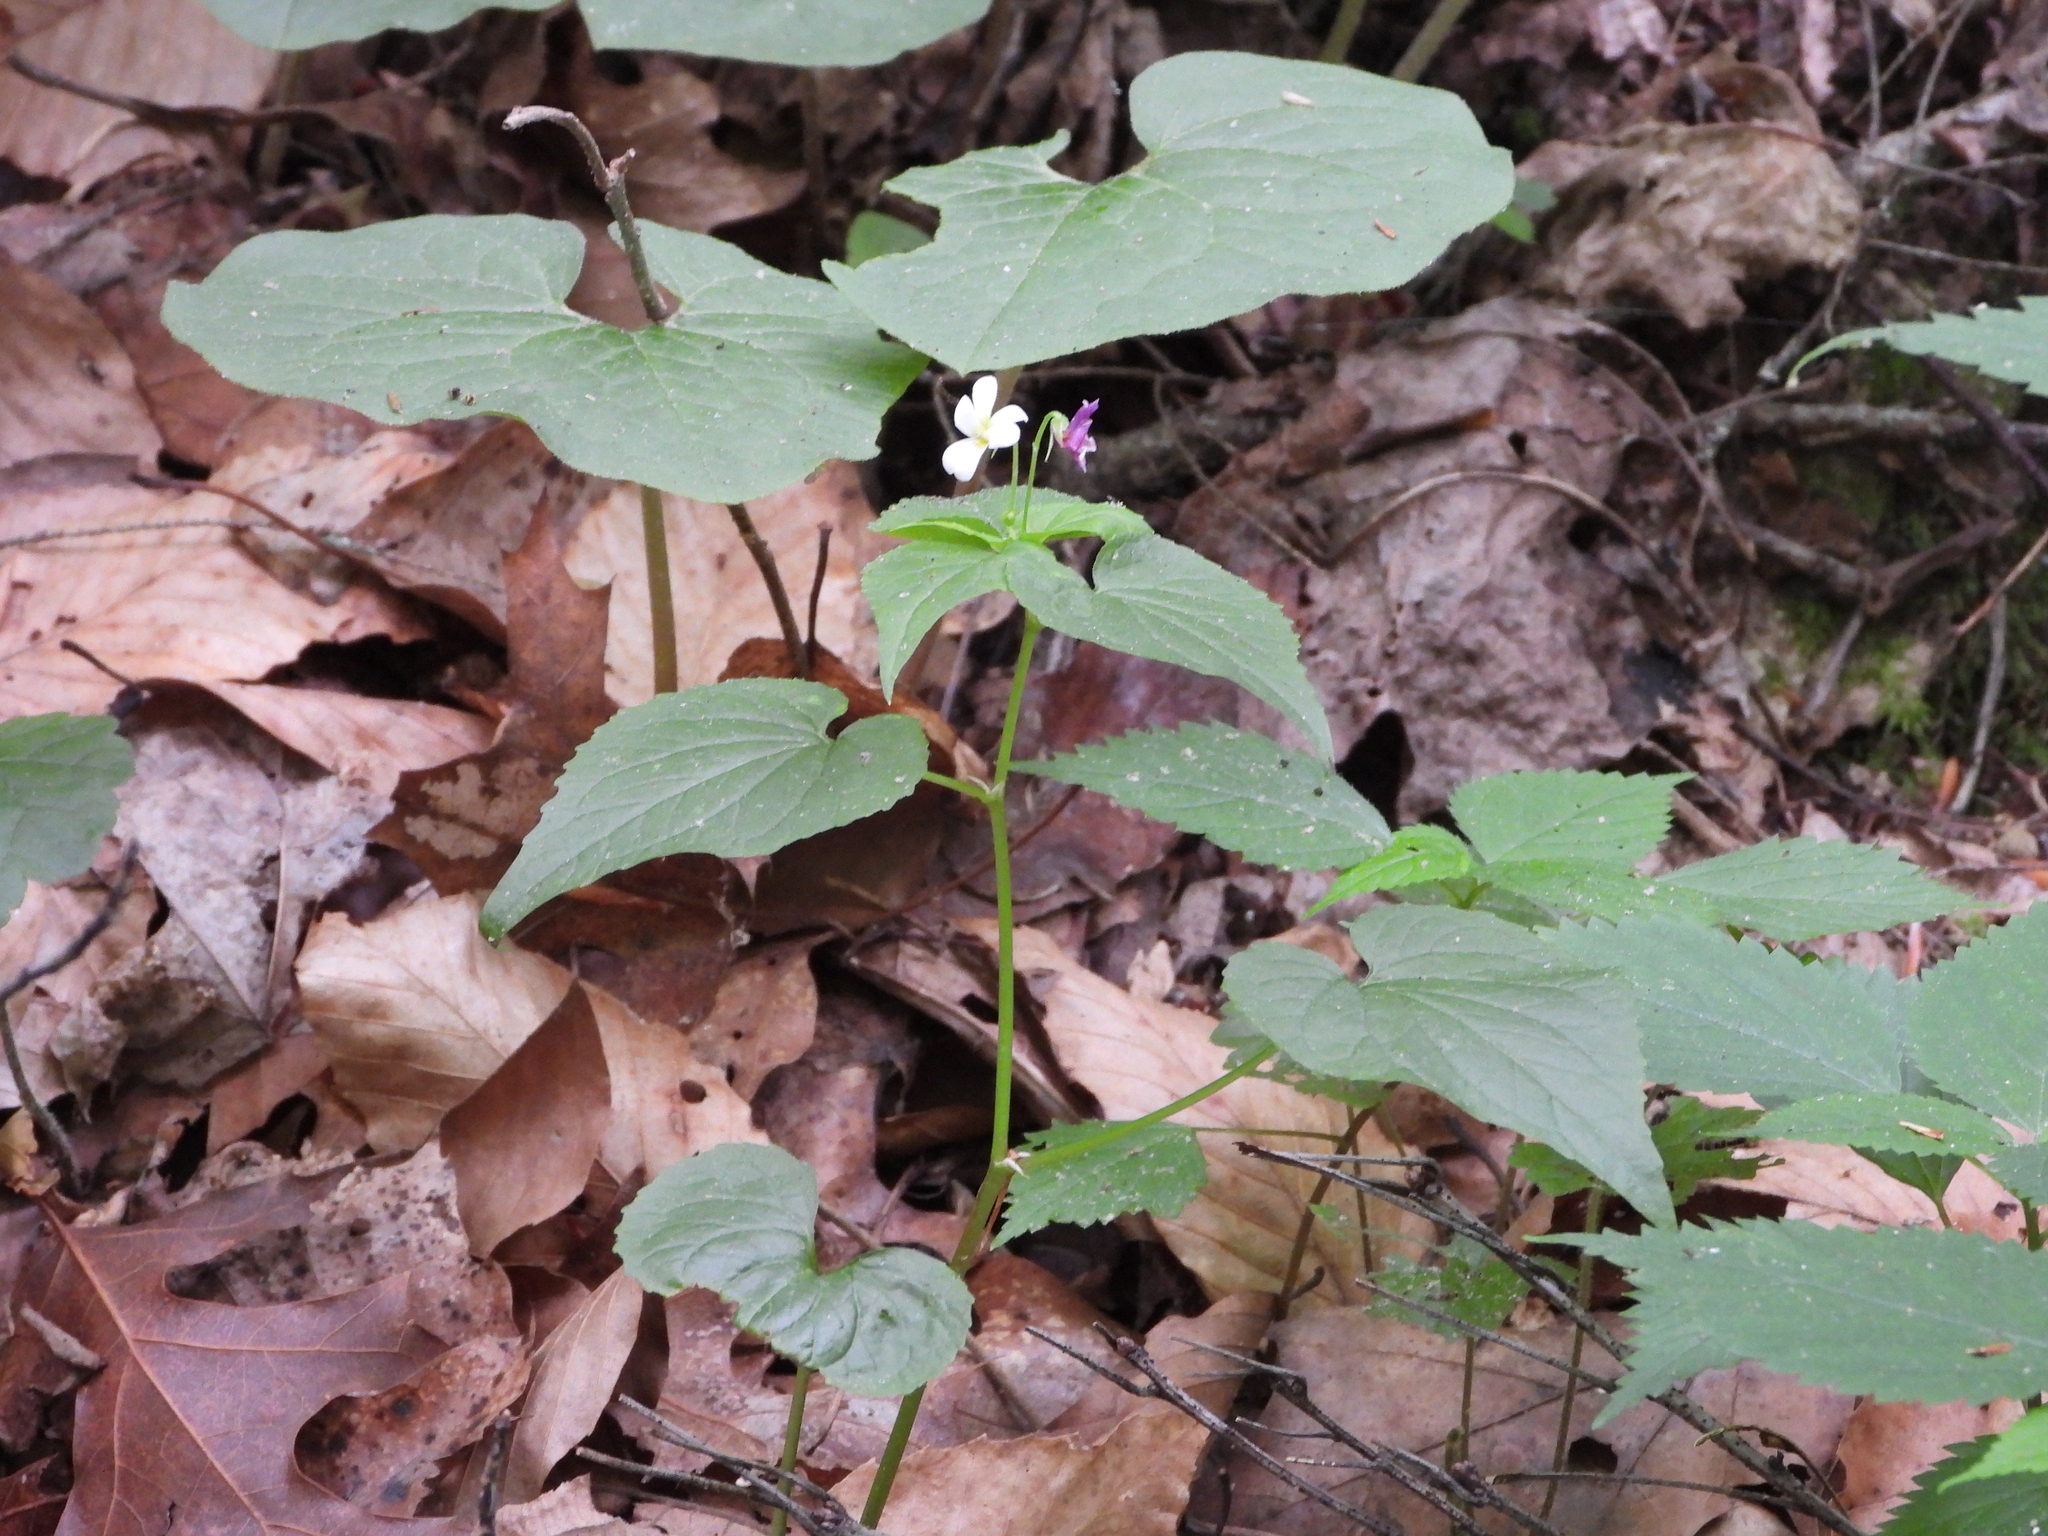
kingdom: Plantae
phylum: Tracheophyta
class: Magnoliopsida
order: Malpighiales
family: Violaceae
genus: Viola
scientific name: Viola canadensis
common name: Canada violet
